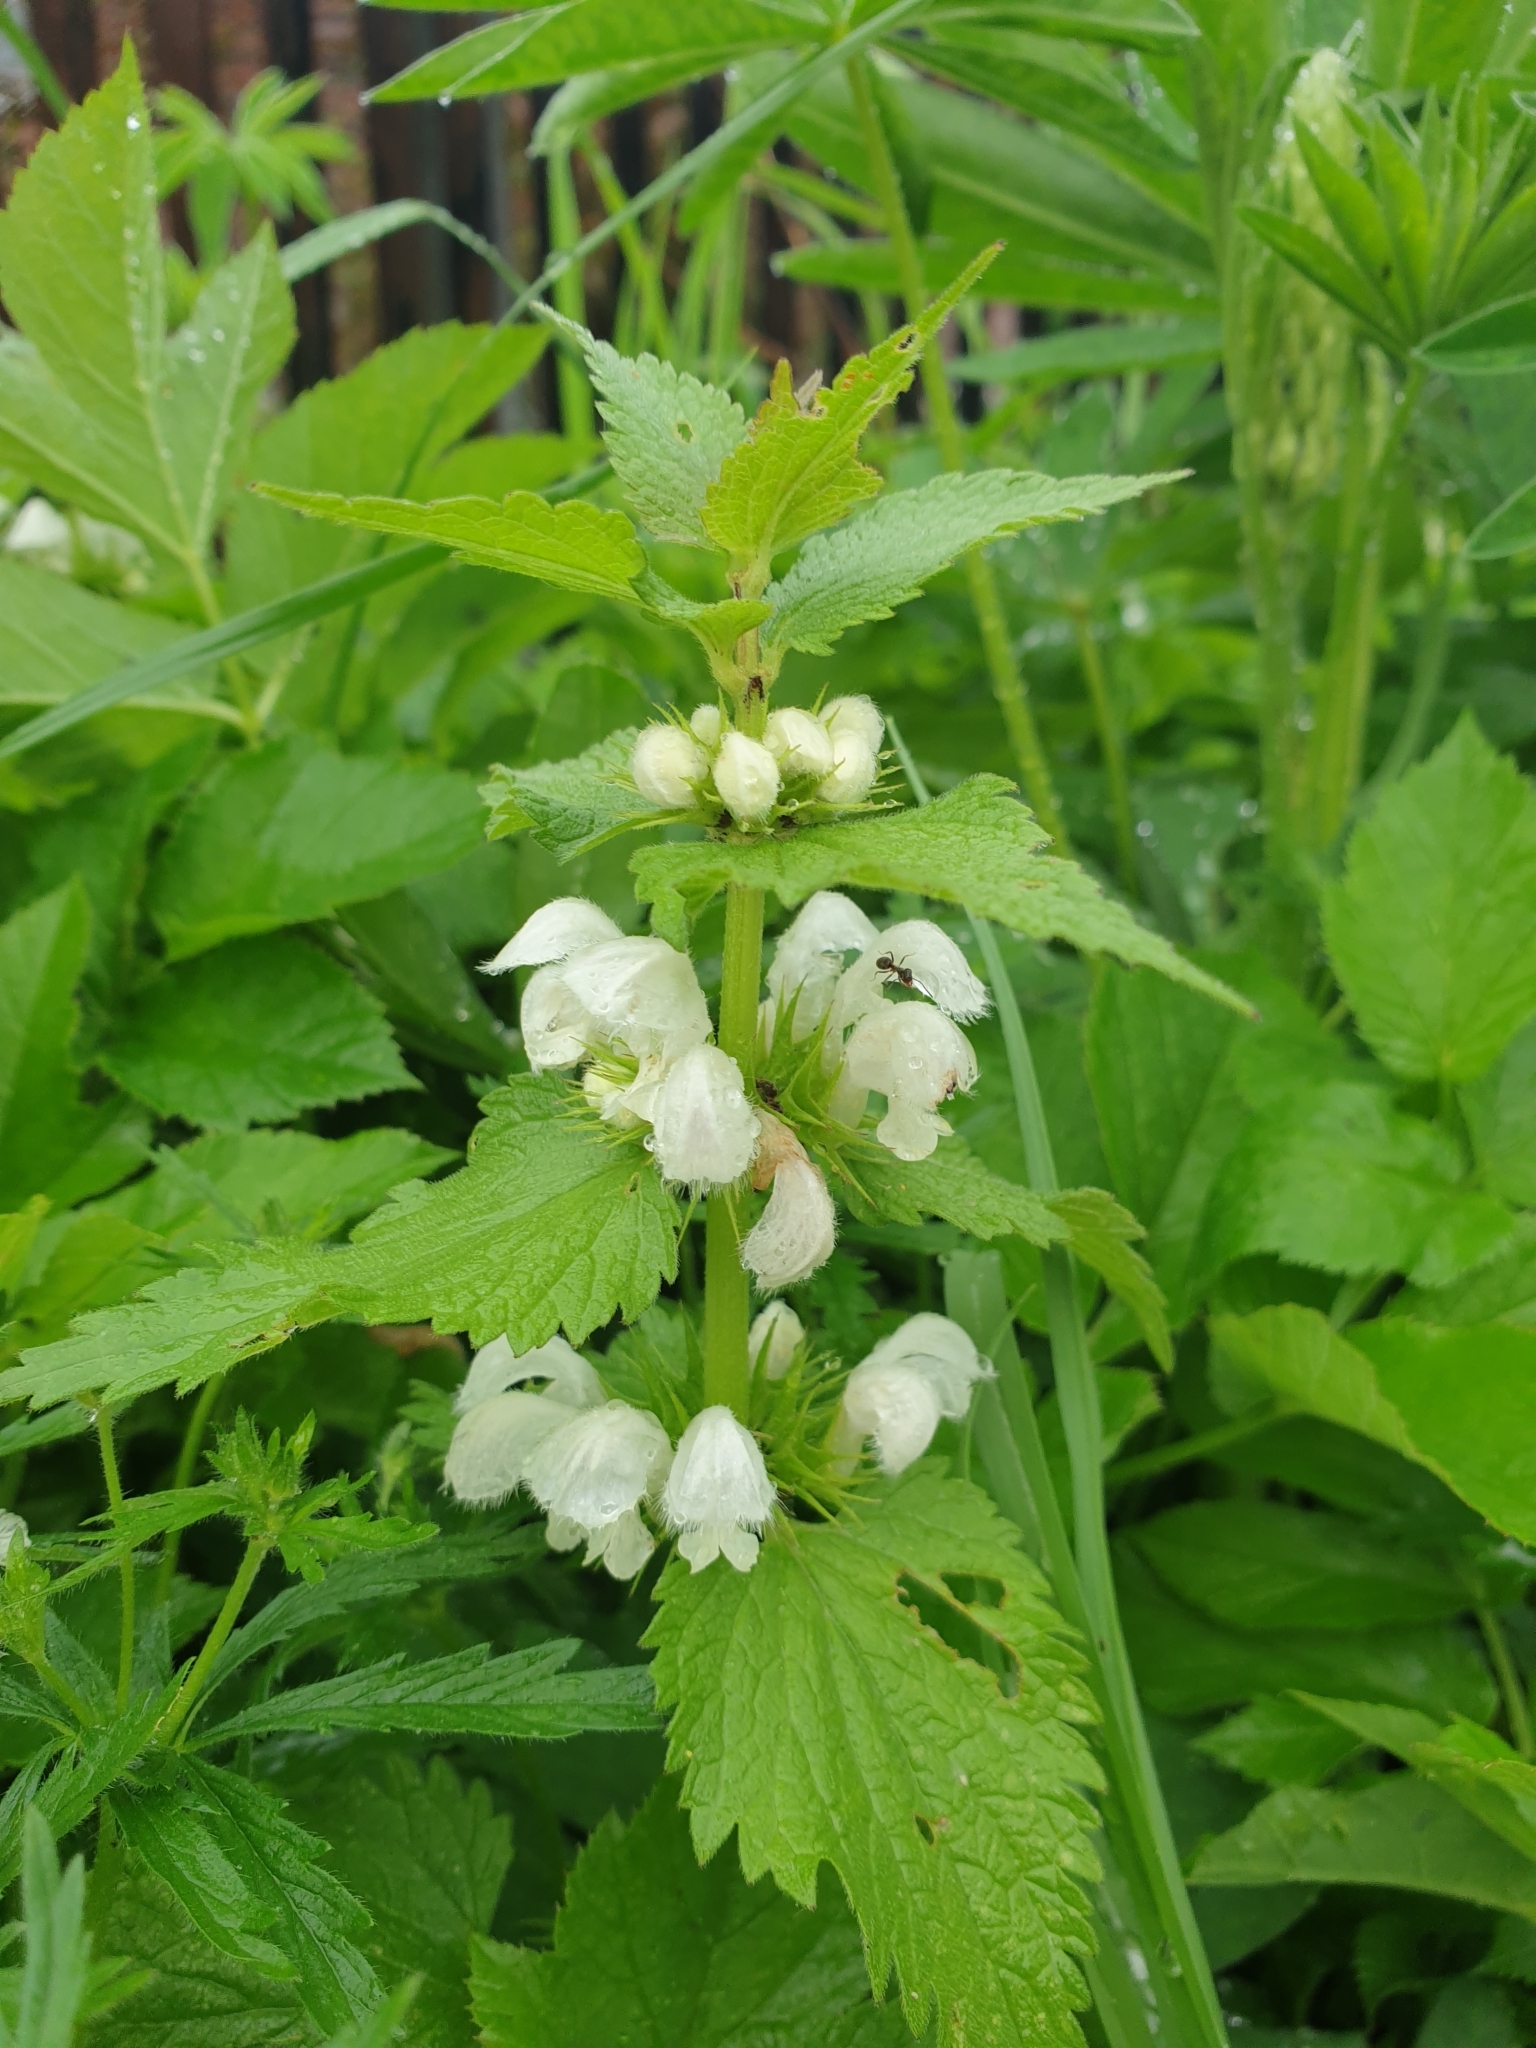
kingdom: Plantae
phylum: Tracheophyta
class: Magnoliopsida
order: Lamiales
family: Lamiaceae
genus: Lamium
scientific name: Lamium album
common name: White dead-nettle
